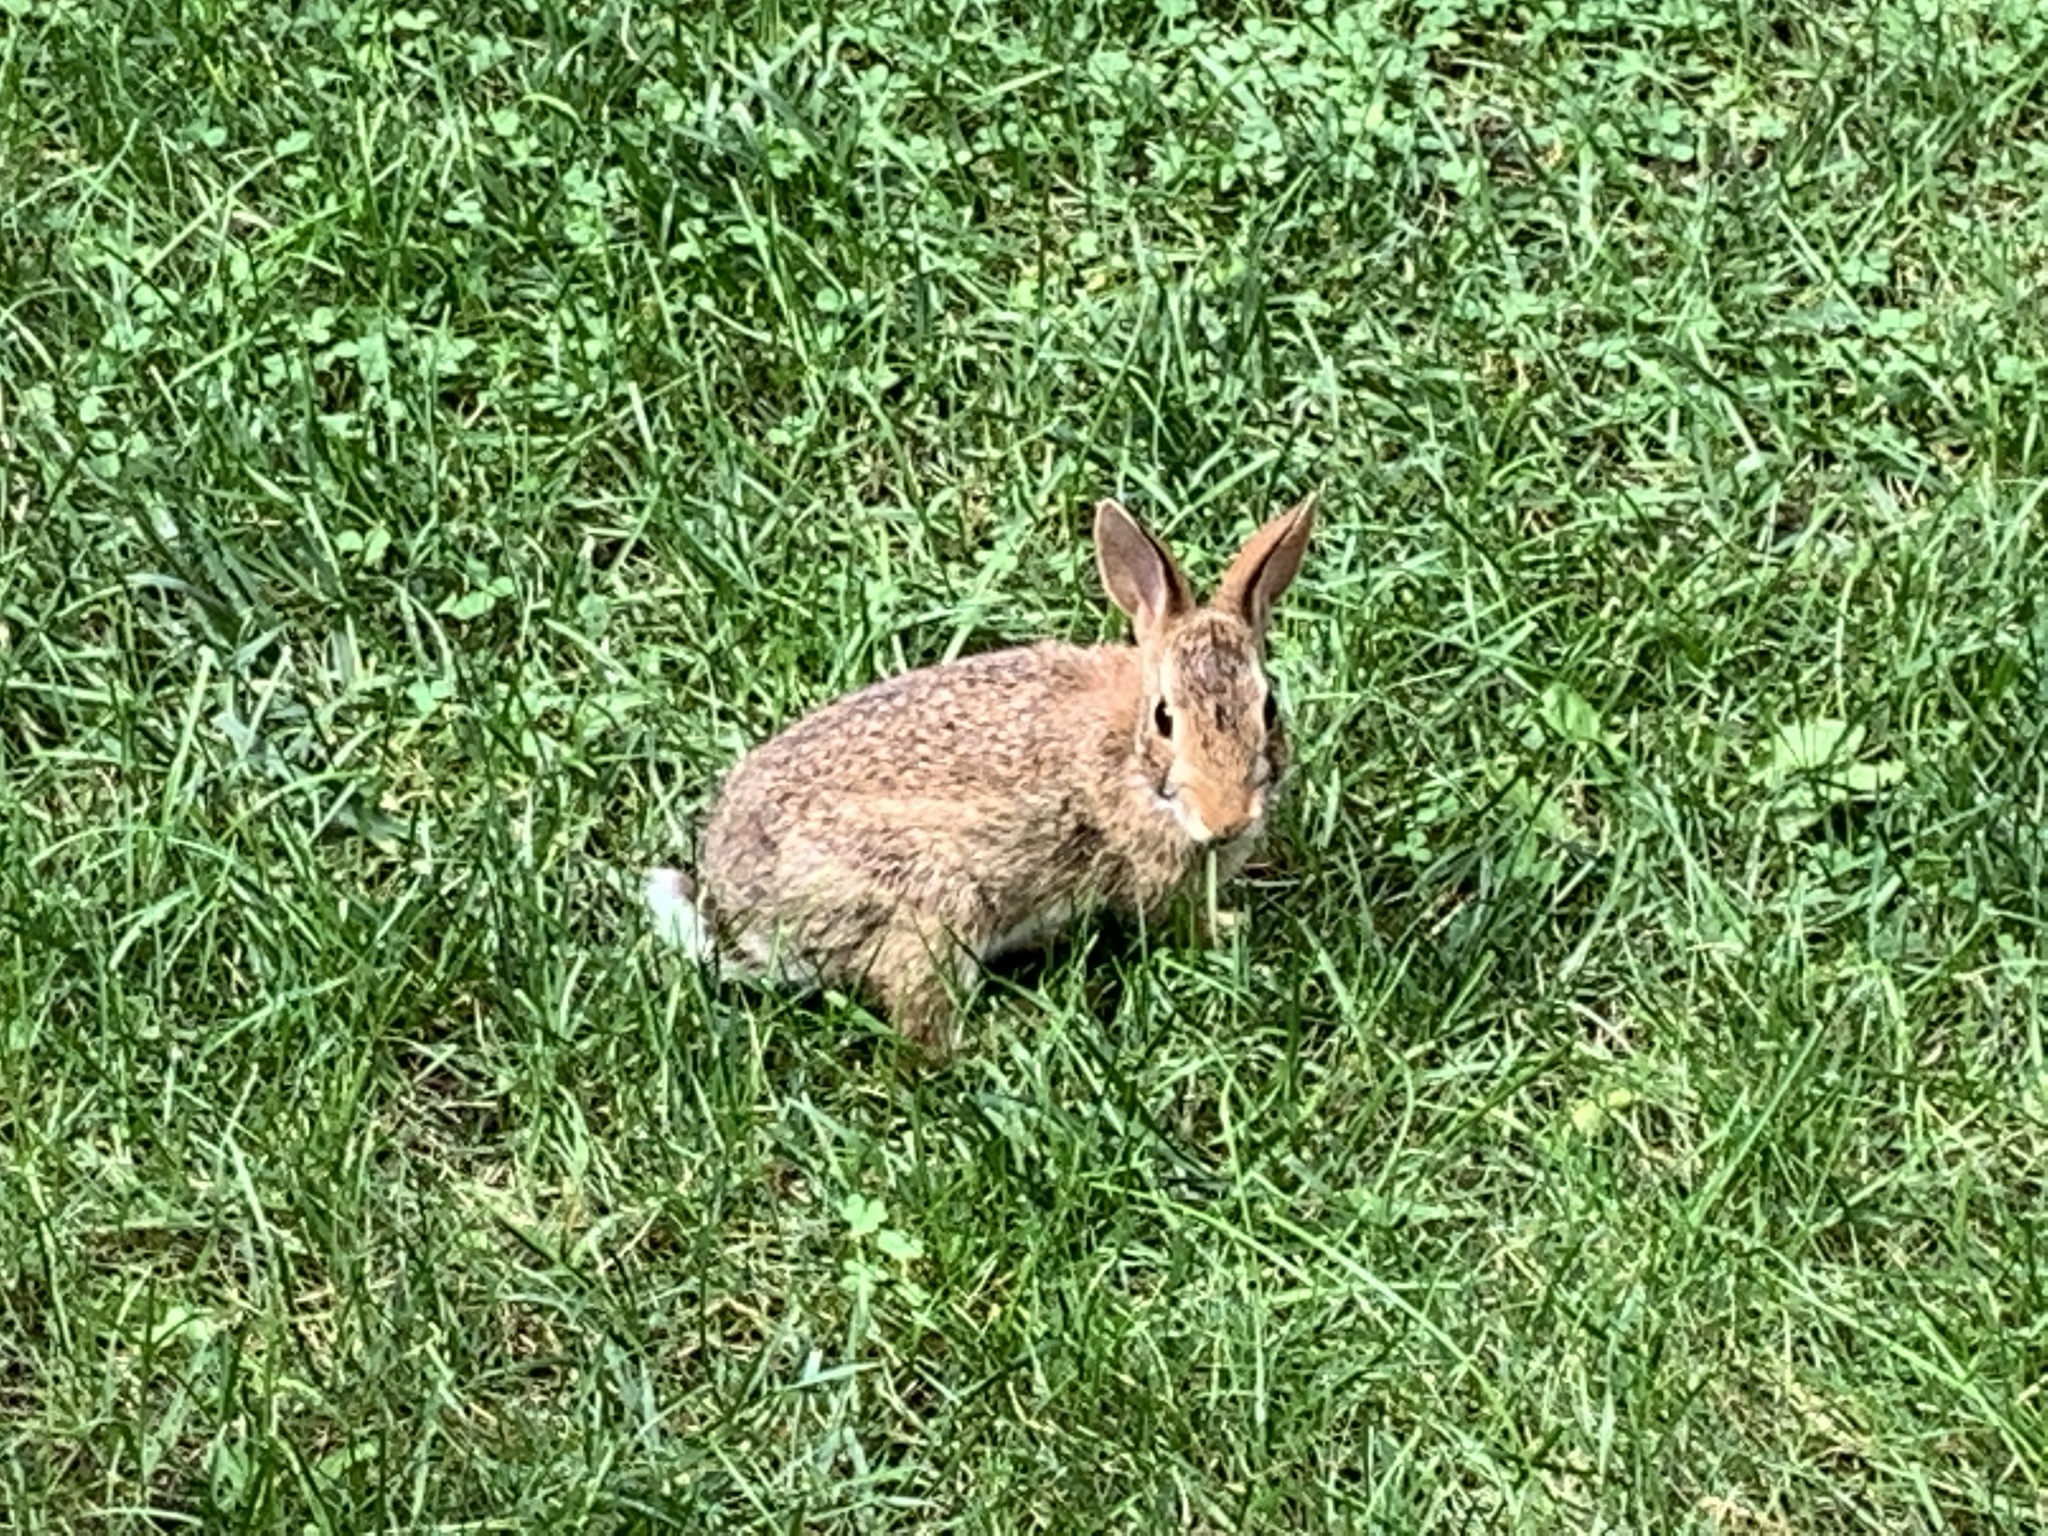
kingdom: Animalia
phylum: Chordata
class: Mammalia
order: Lagomorpha
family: Leporidae
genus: Sylvilagus
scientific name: Sylvilagus floridanus
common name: Eastern cottontail
